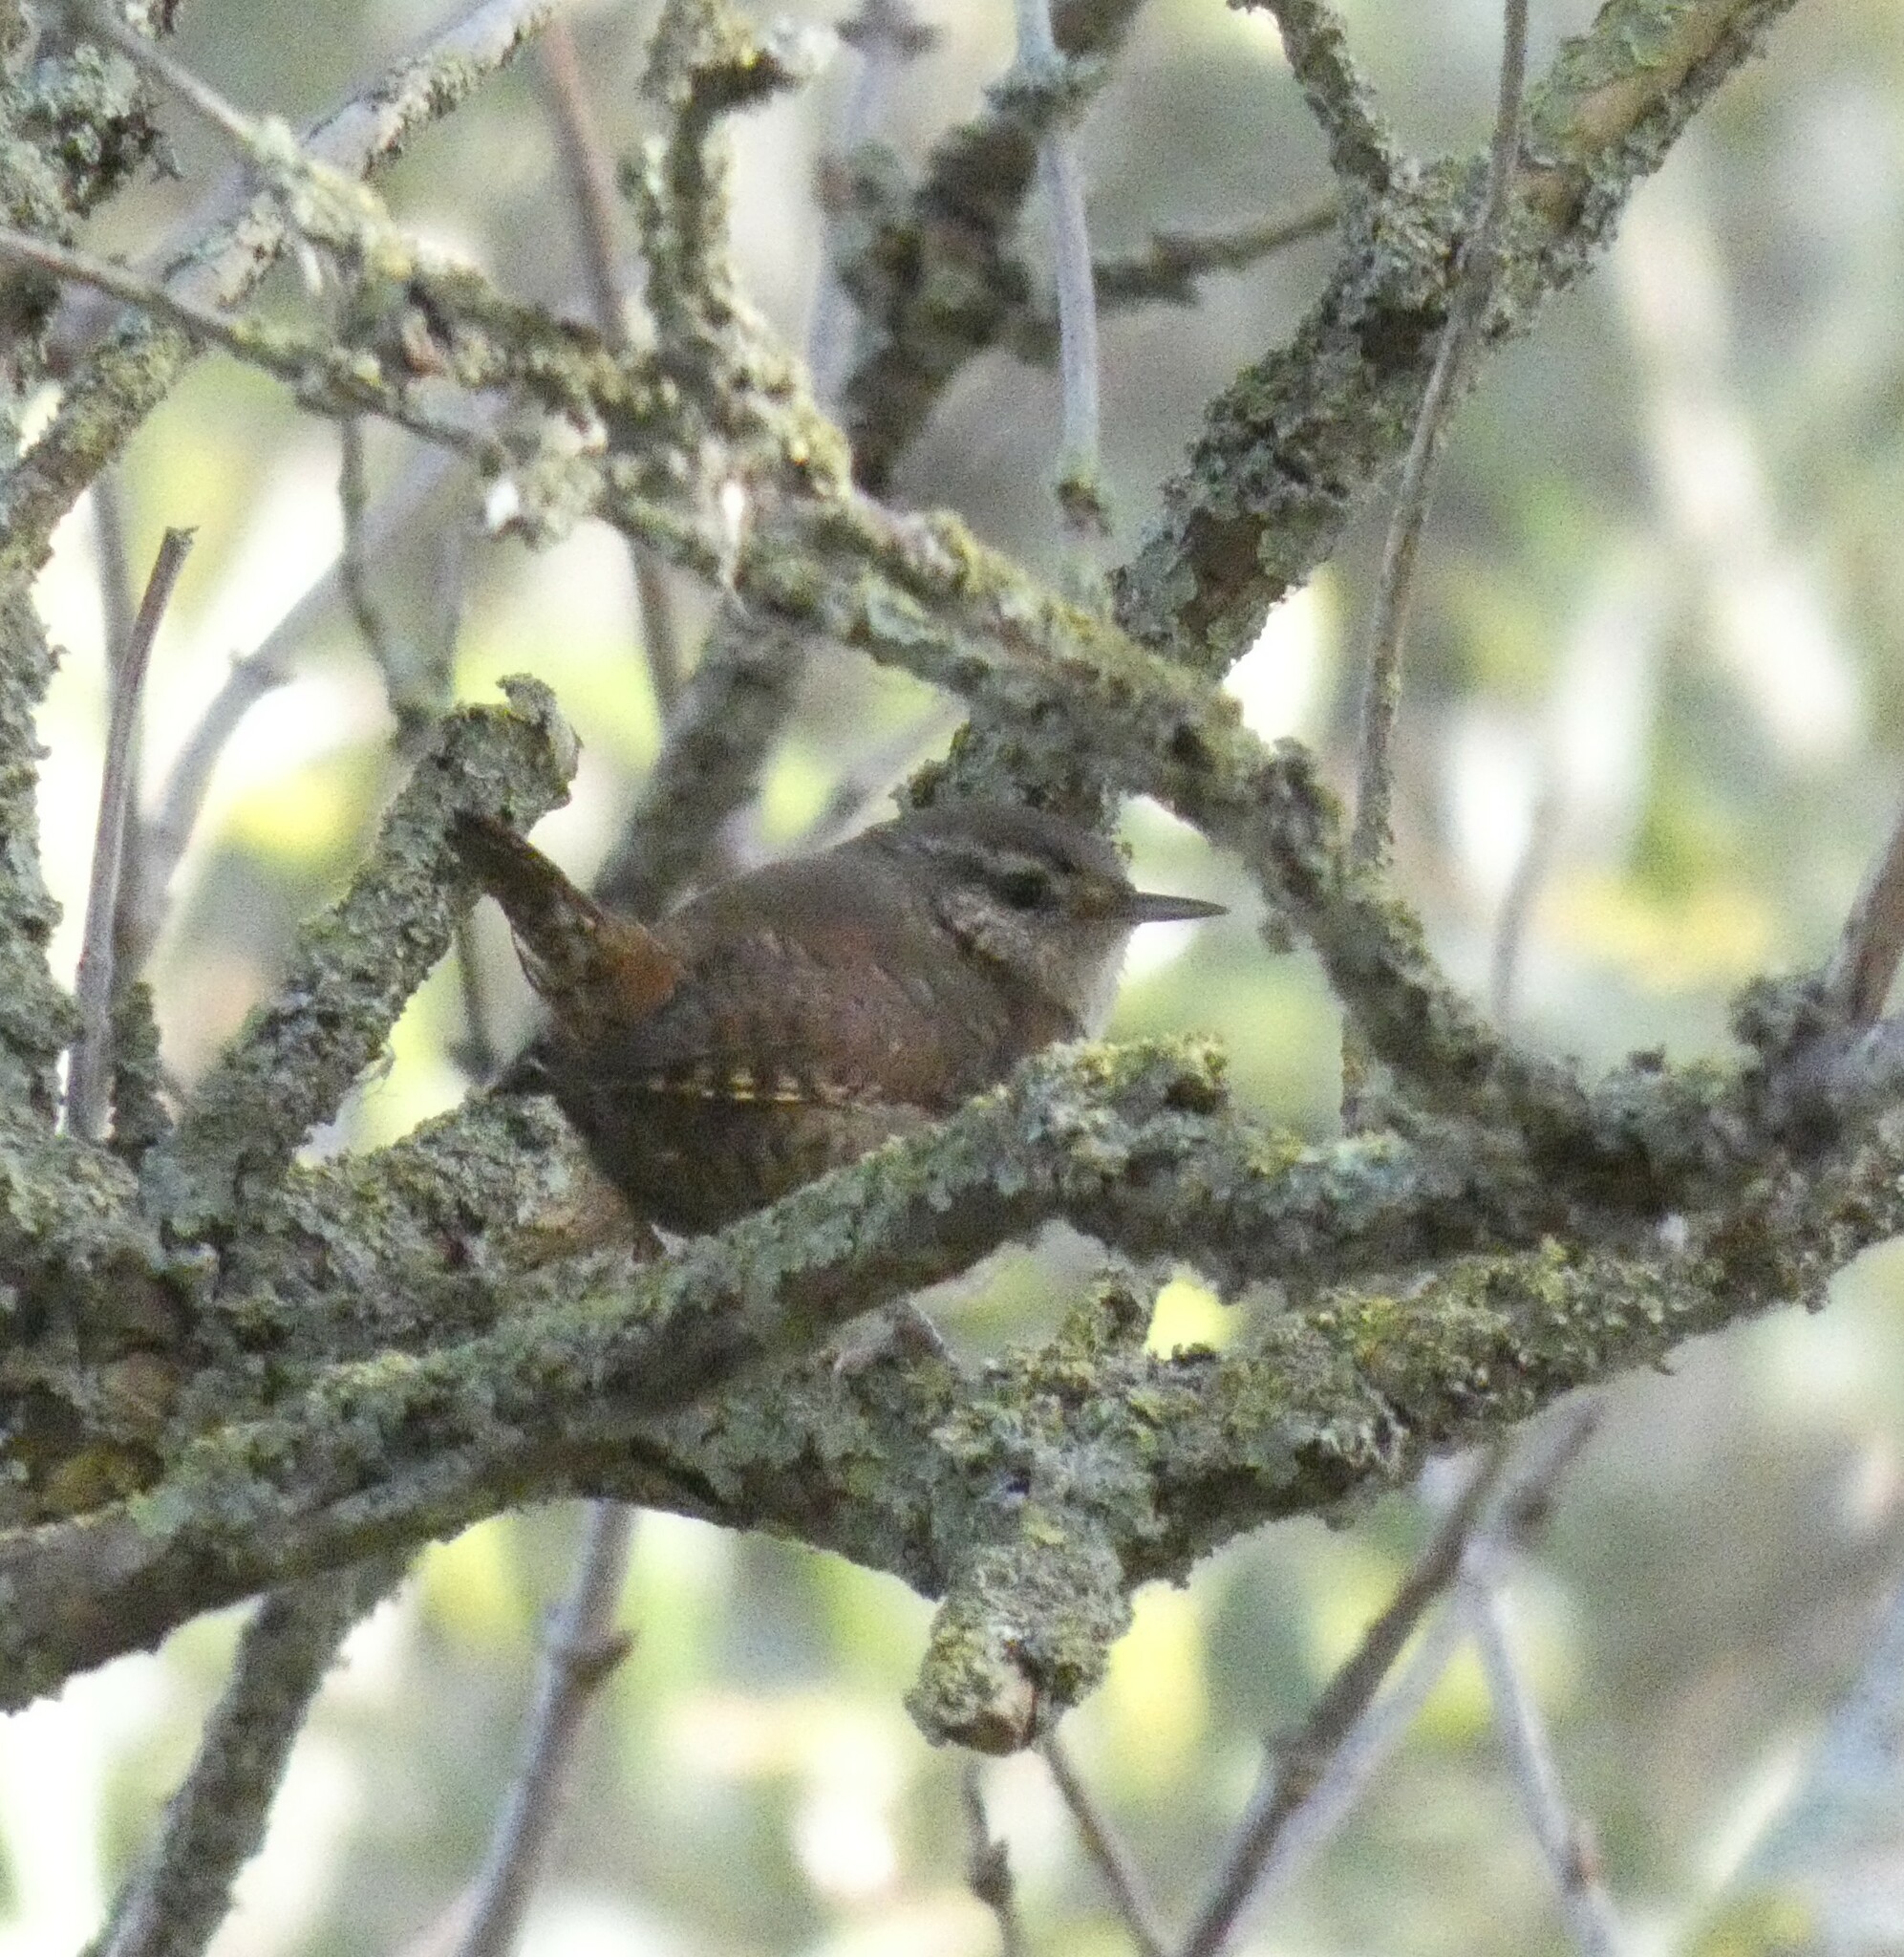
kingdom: Animalia
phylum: Chordata
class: Aves
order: Passeriformes
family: Troglodytidae
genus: Troglodytes
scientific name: Troglodytes troglodytes
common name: Eurasian wren
